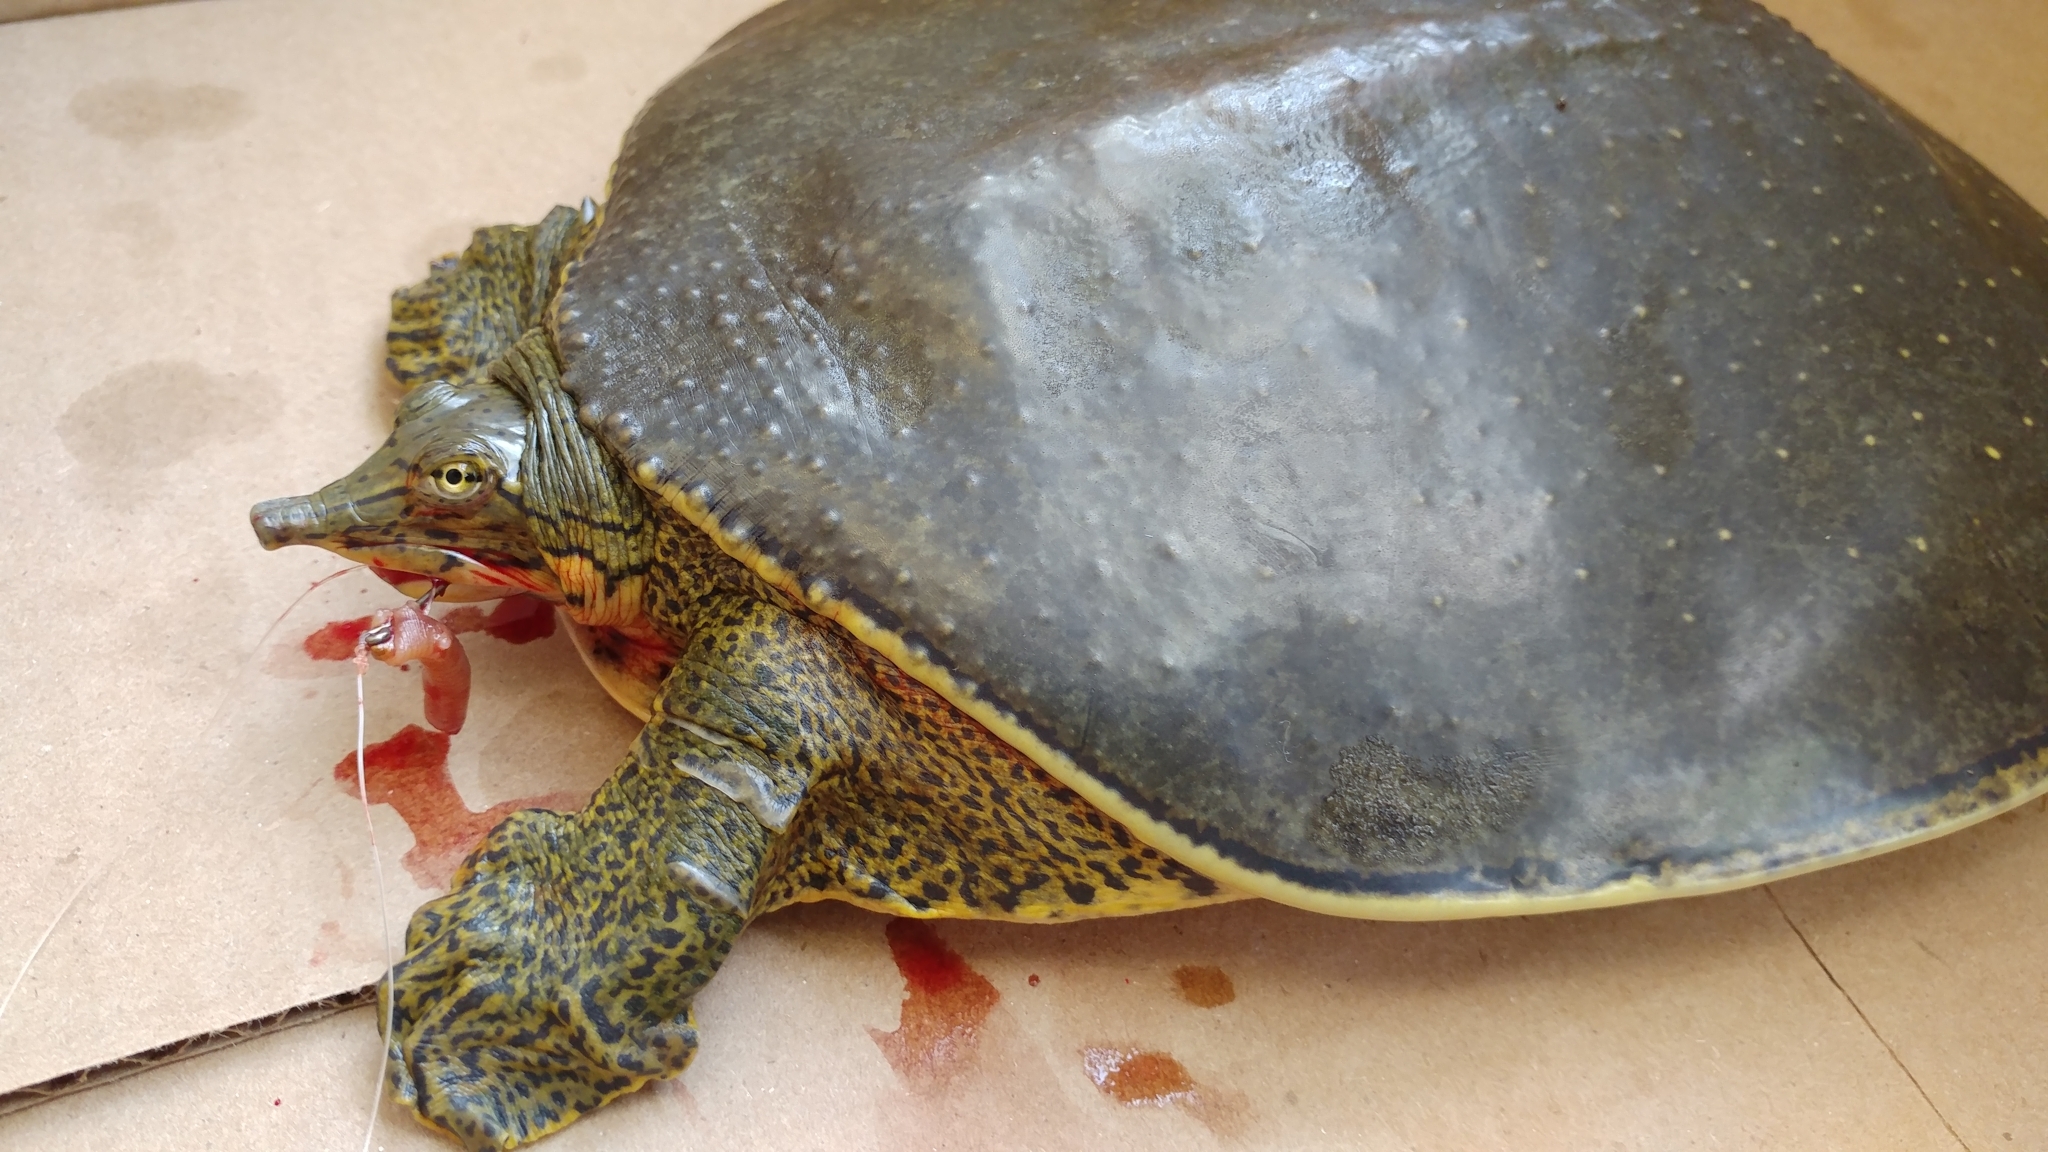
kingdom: Animalia
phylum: Chordata
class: Testudines
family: Trionychidae
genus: Apalone
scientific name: Apalone spinifera
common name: Spiny softshell turtle
